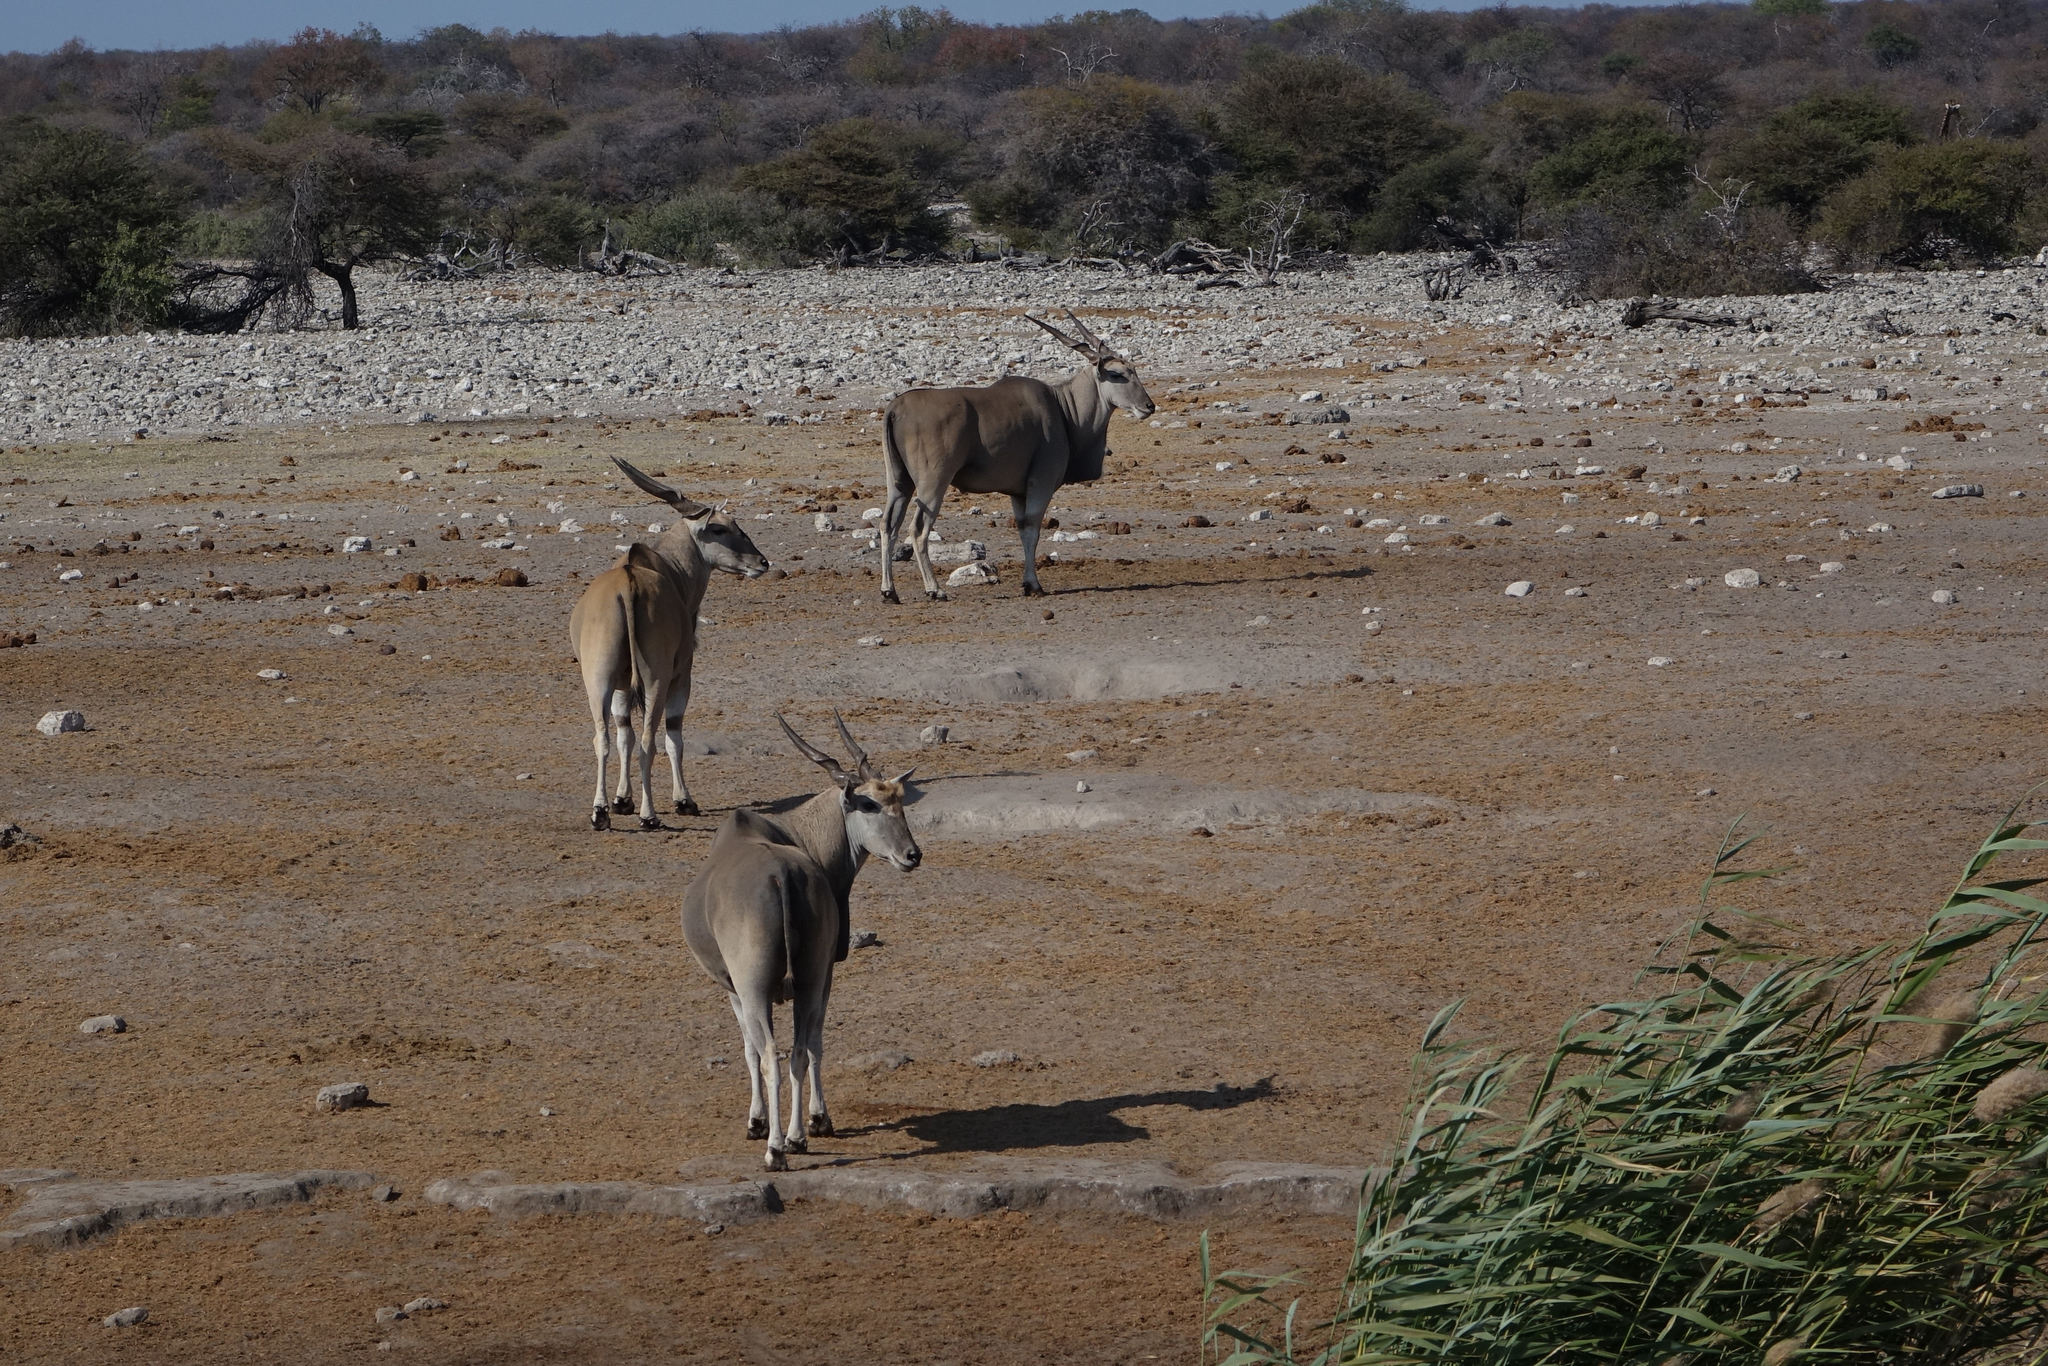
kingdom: Animalia
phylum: Chordata
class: Mammalia
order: Artiodactyla
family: Bovidae
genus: Taurotragus
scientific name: Taurotragus oryx
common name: Common eland
